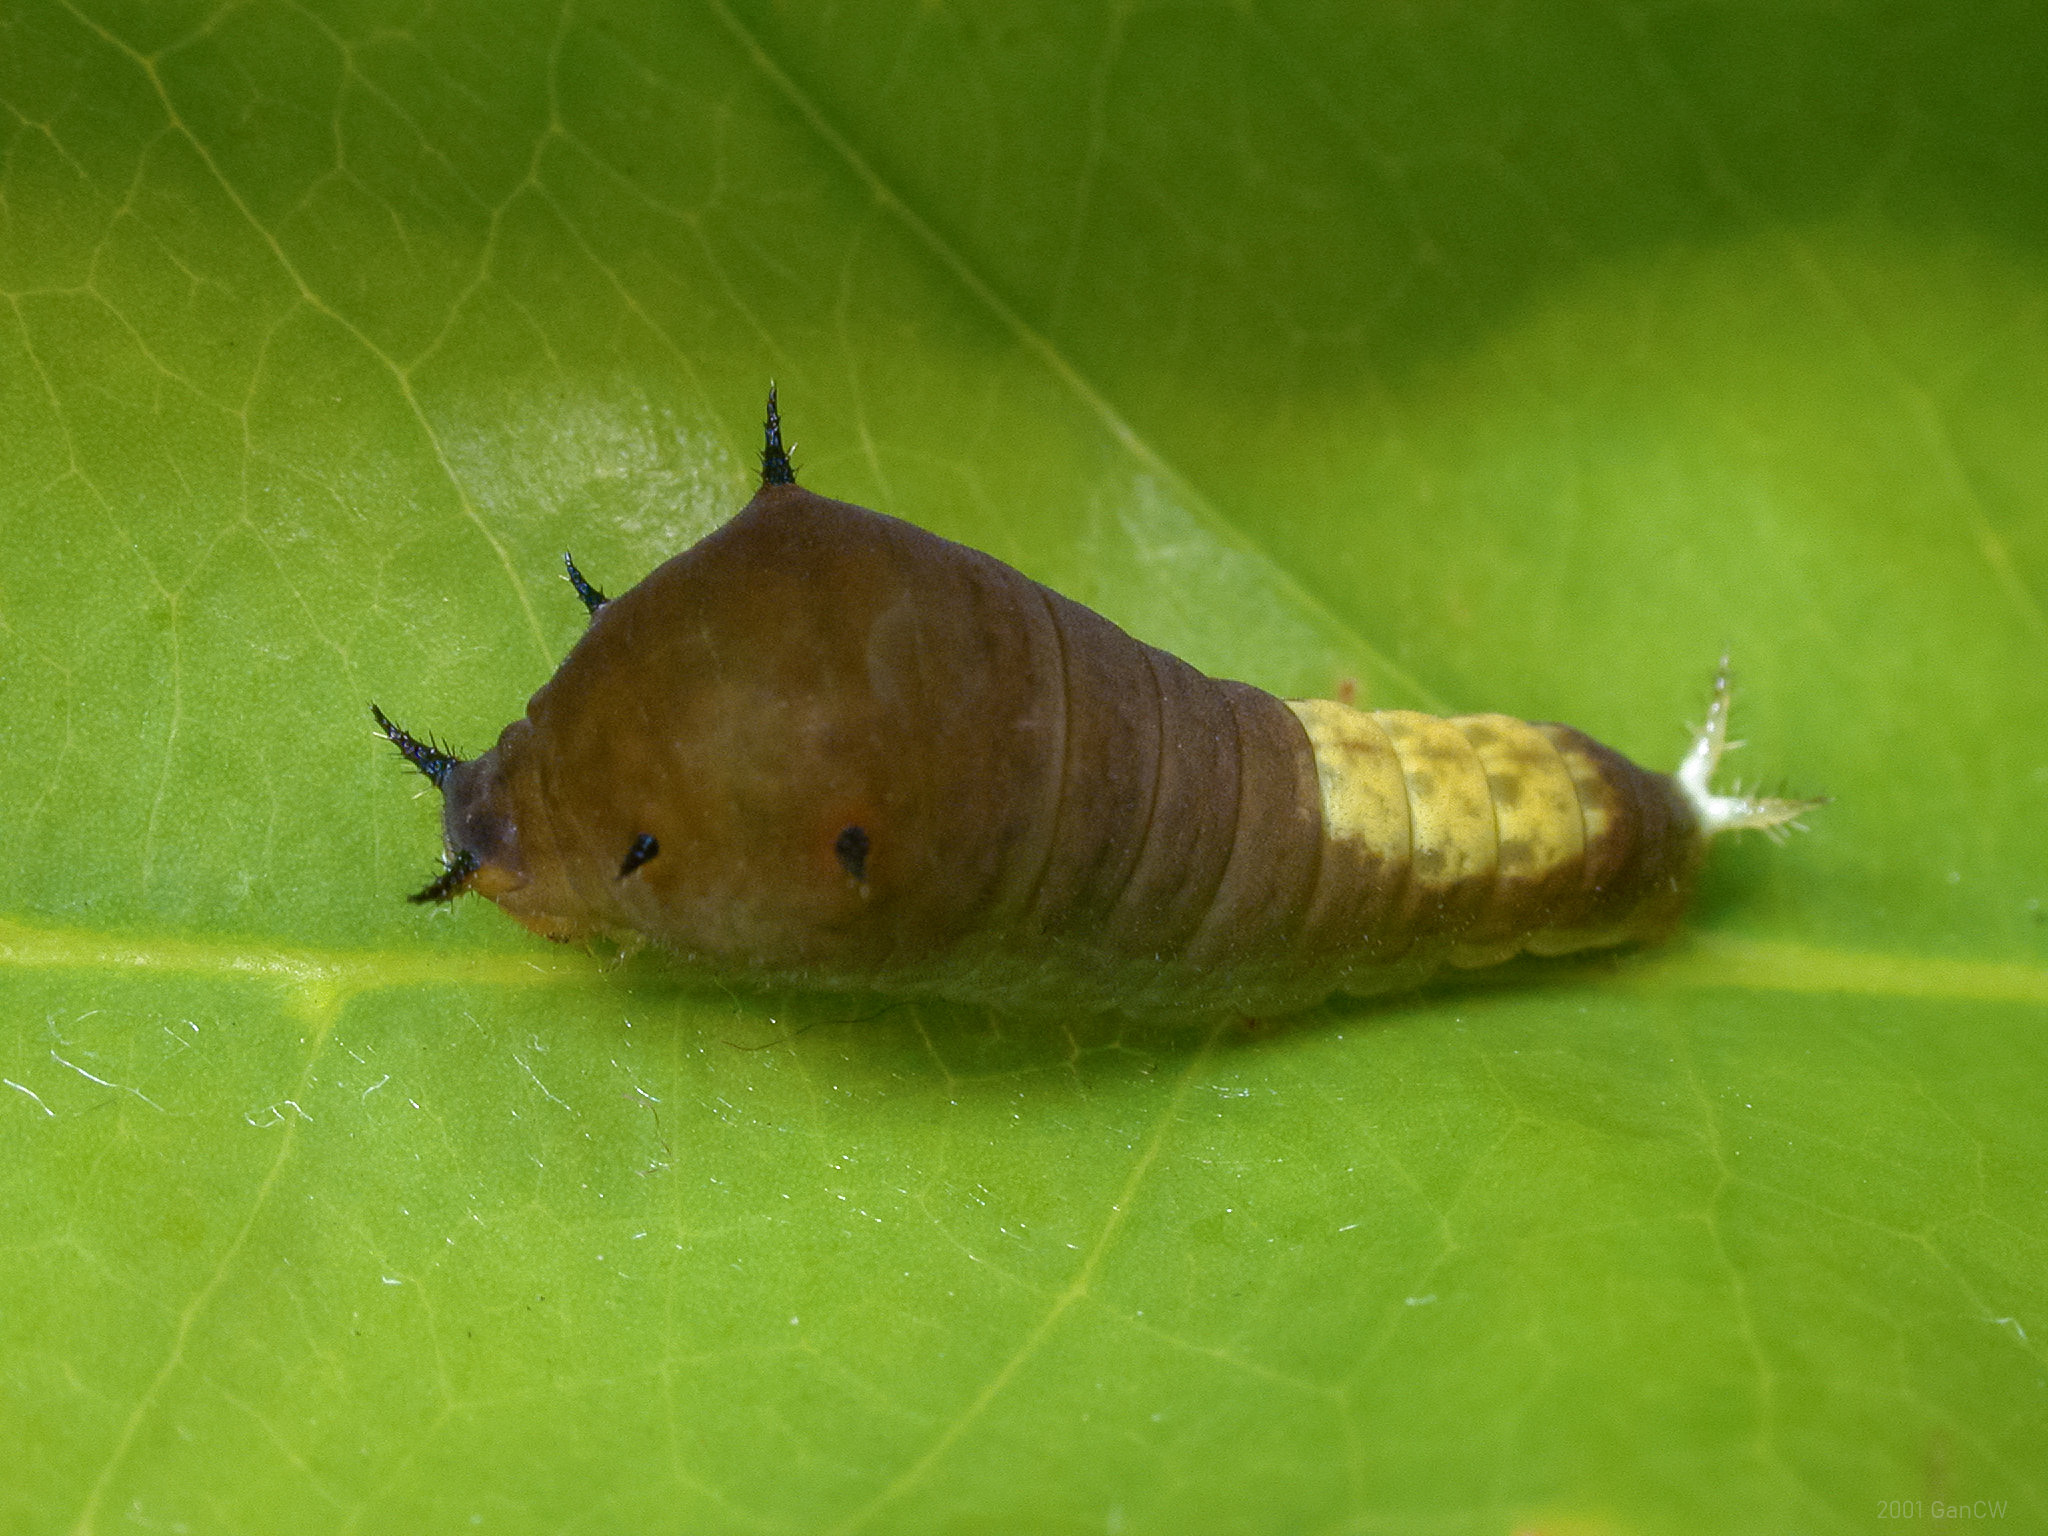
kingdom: Animalia
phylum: Arthropoda
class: Insecta
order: Lepidoptera
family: Papilionidae
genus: Graphium
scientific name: Graphium agamemnon
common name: Tailed jay
